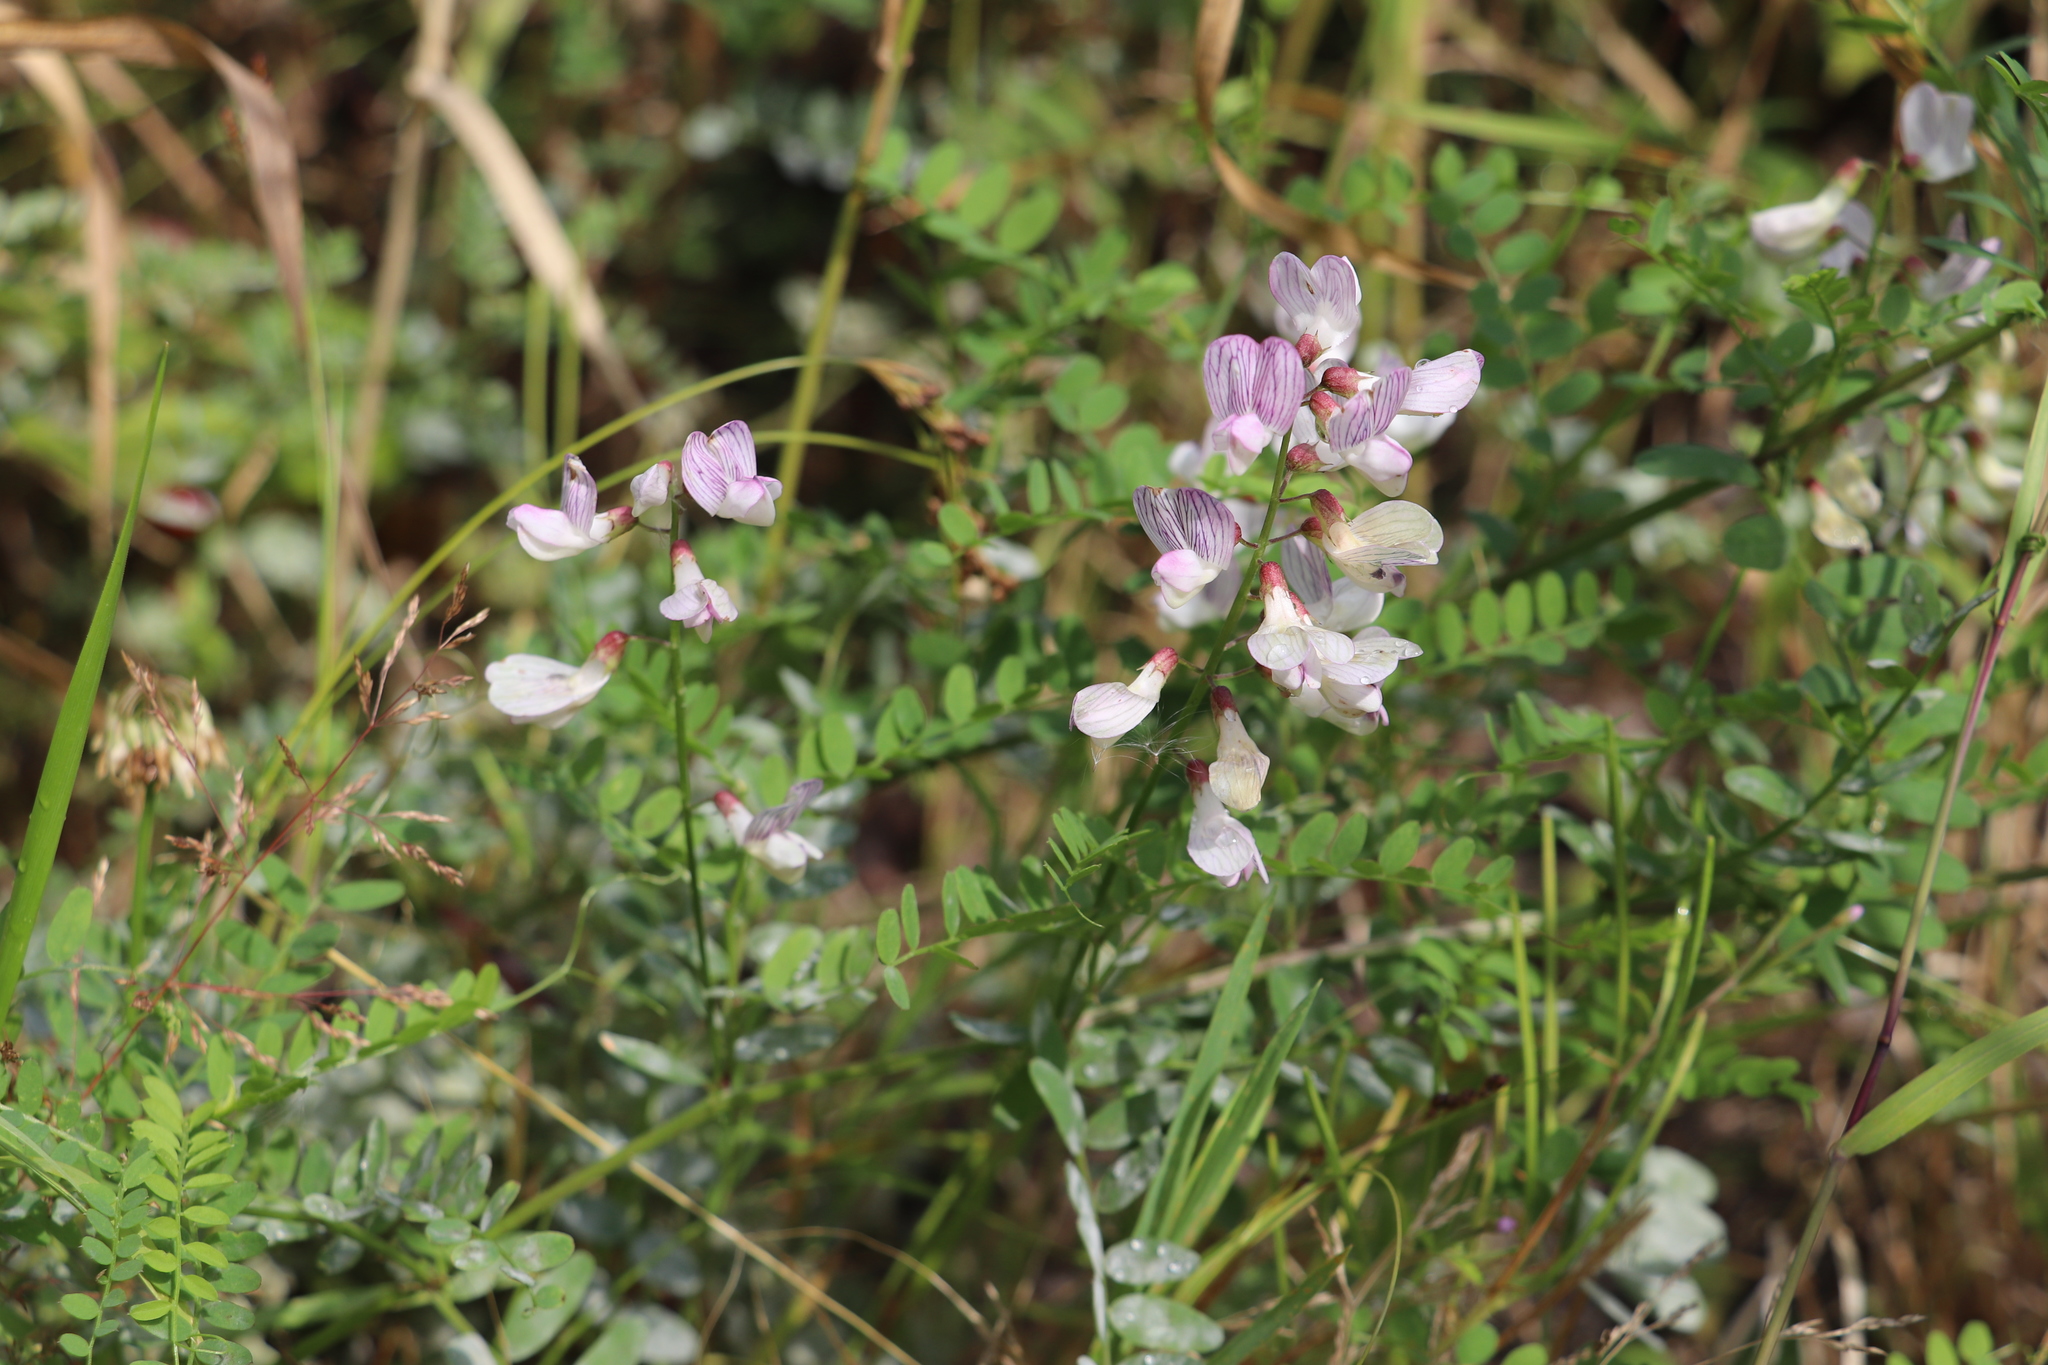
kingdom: Plantae
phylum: Tracheophyta
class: Magnoliopsida
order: Fabales
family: Fabaceae
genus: Vicia
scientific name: Vicia sylvatica
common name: Wood vetch
